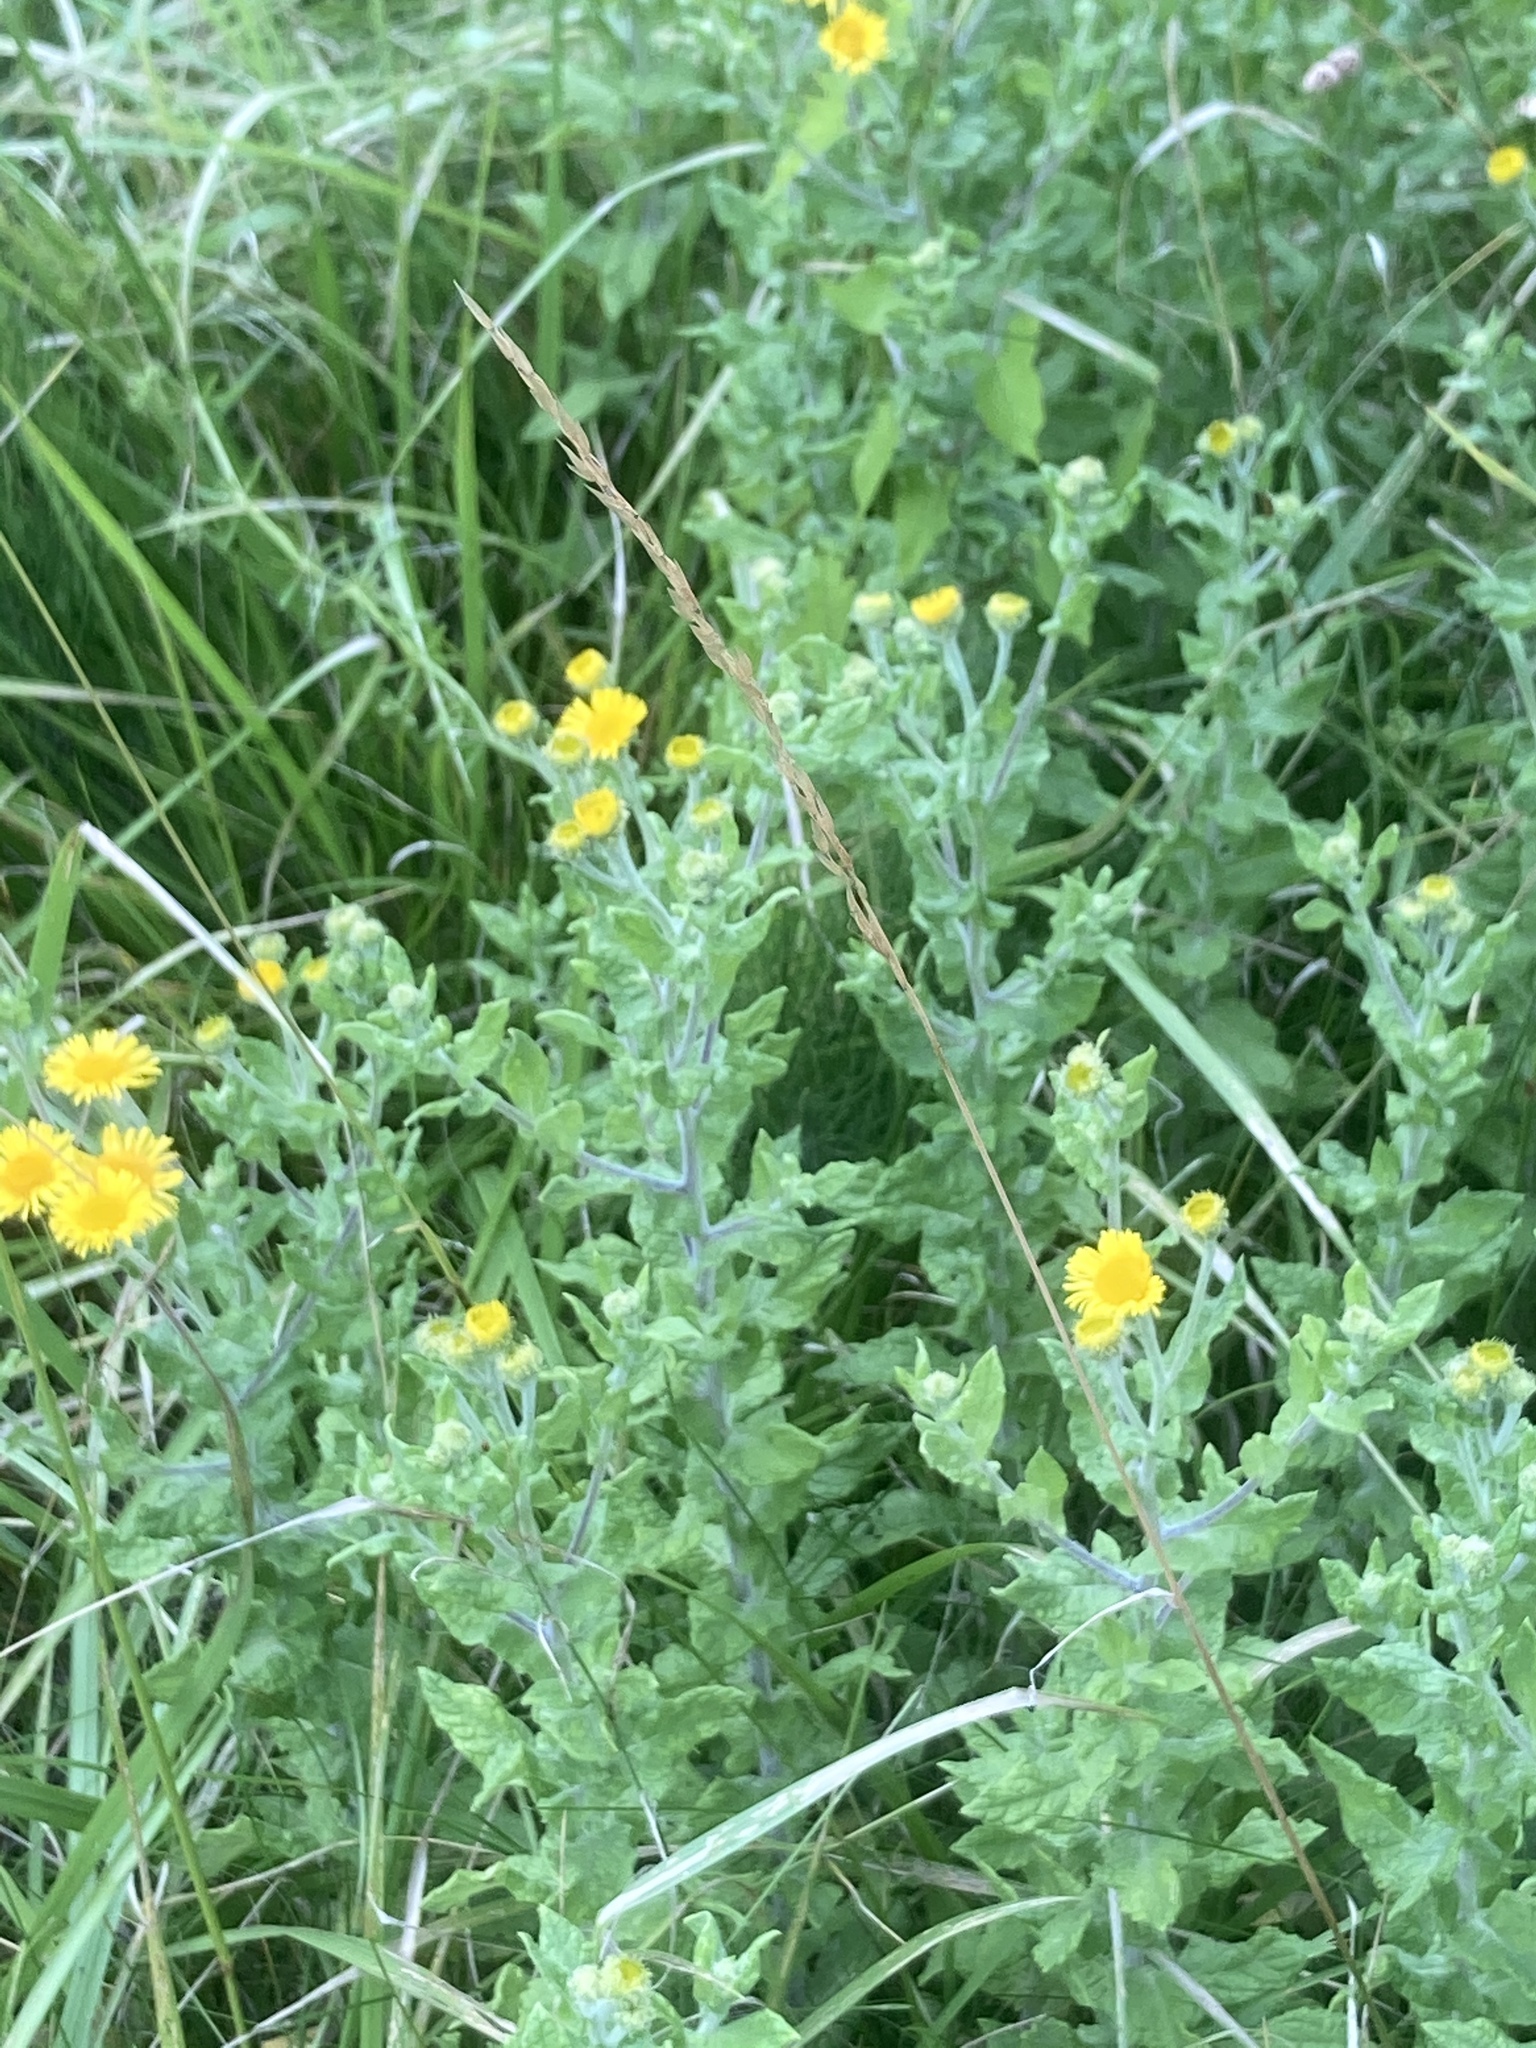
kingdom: Plantae
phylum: Tracheophyta
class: Magnoliopsida
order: Asterales
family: Asteraceae
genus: Pulicaria
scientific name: Pulicaria dysenterica
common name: Common fleabane
